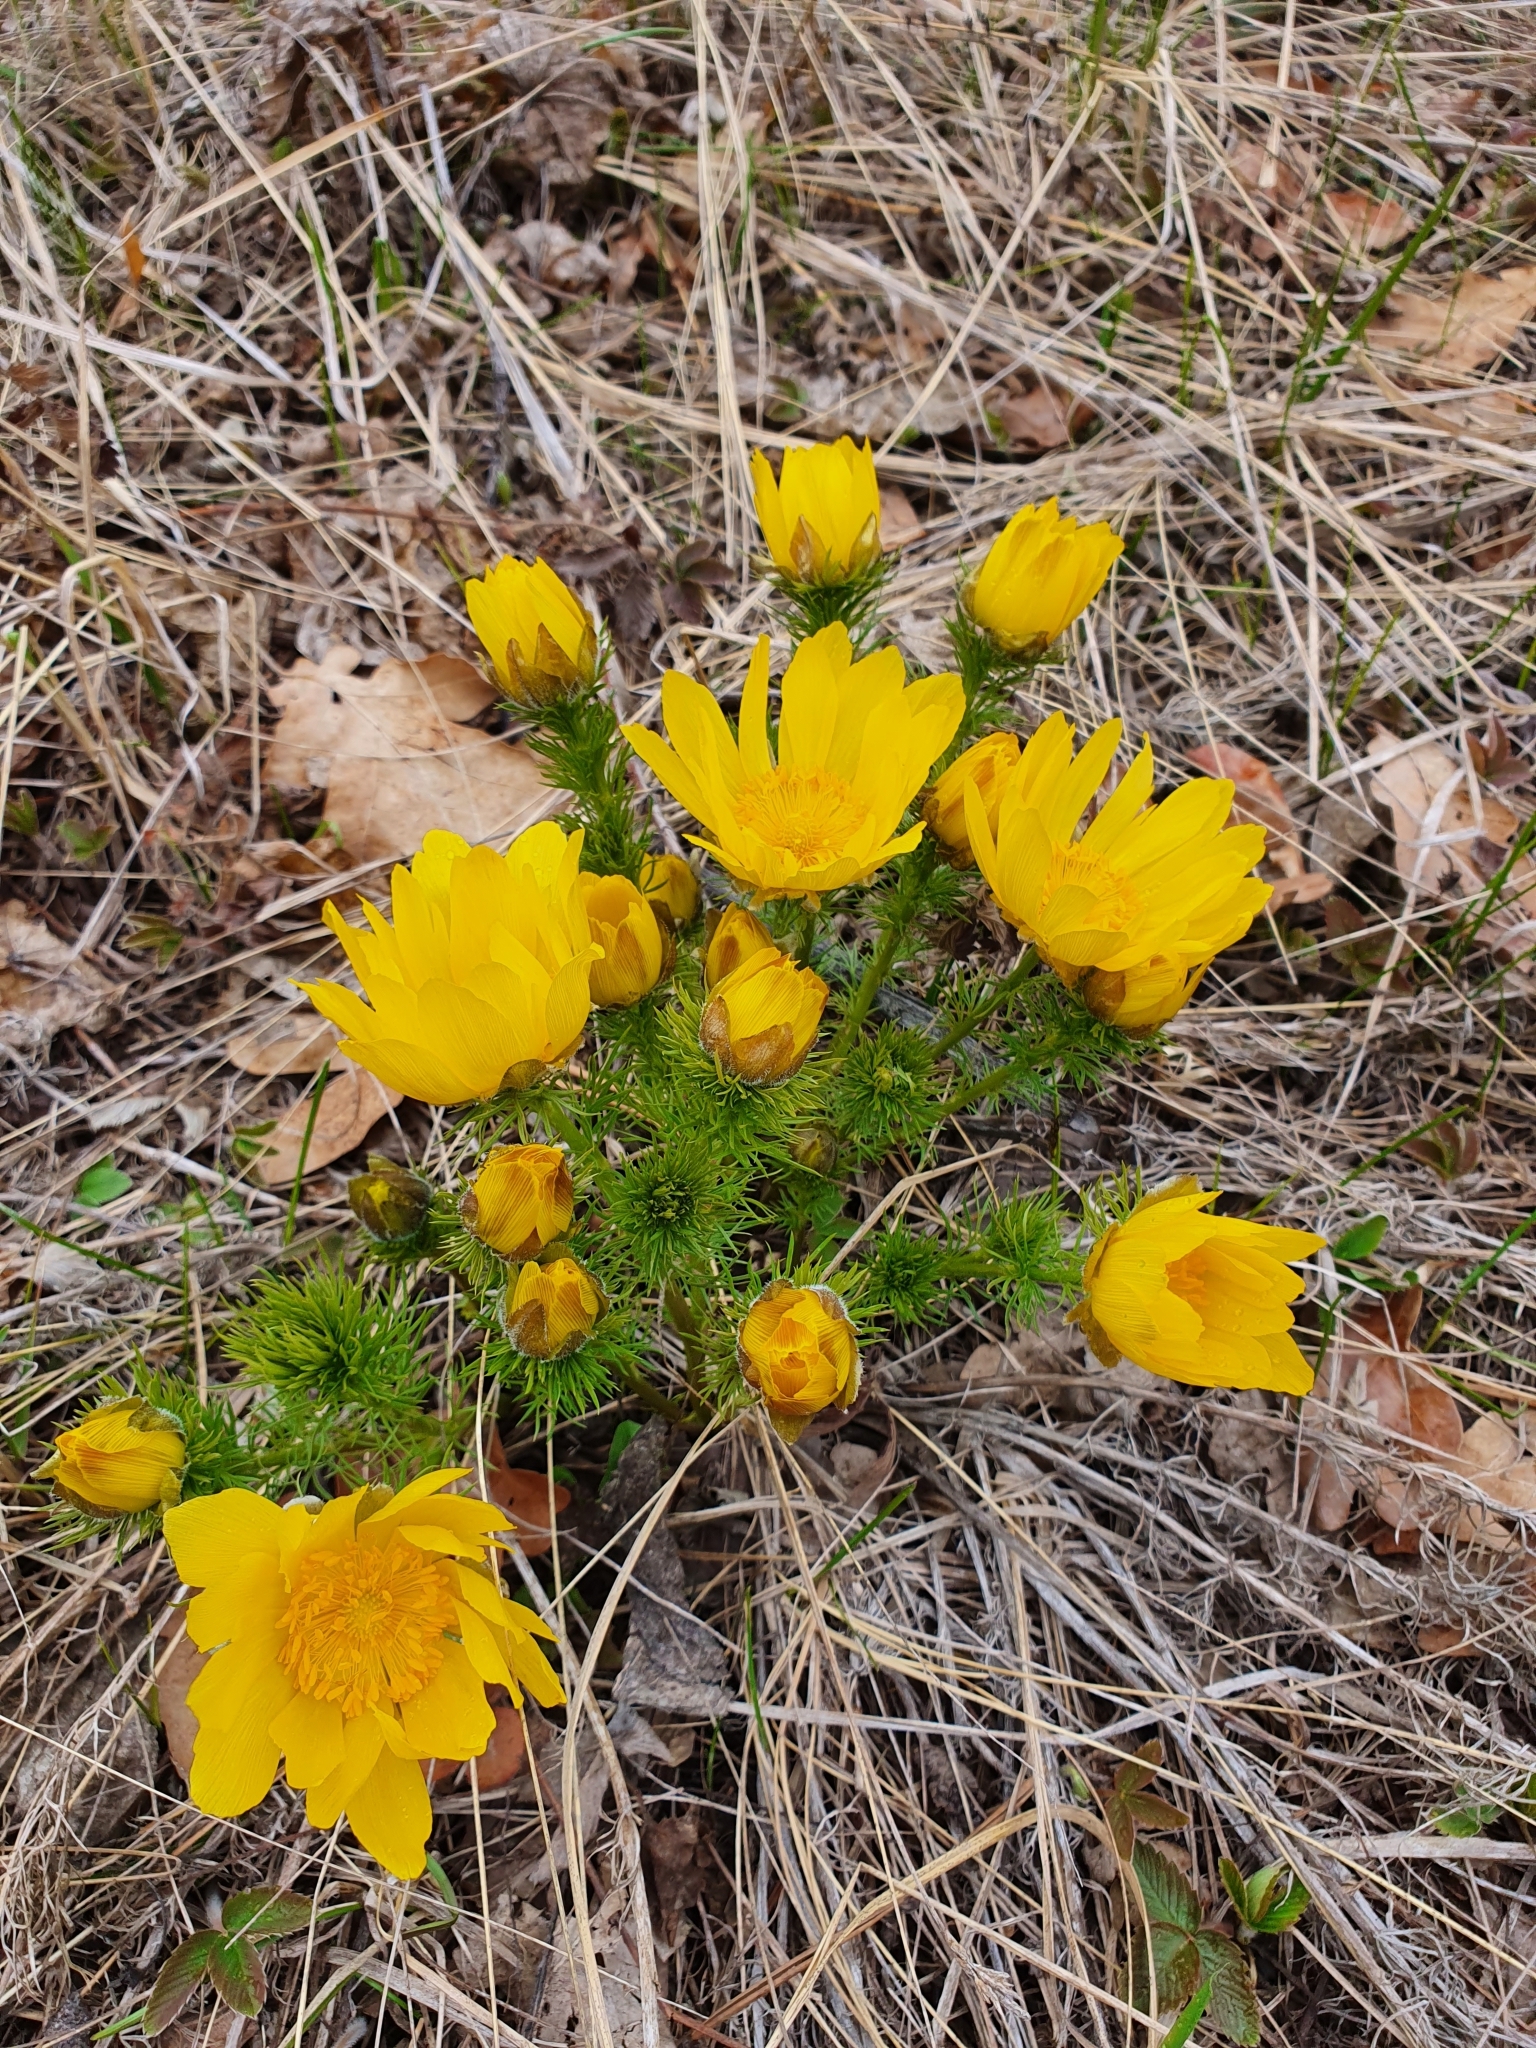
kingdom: Plantae
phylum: Tracheophyta
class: Magnoliopsida
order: Ranunculales
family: Ranunculaceae
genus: Adonis
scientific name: Adonis vernalis
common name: Yellow pheasants-eye
